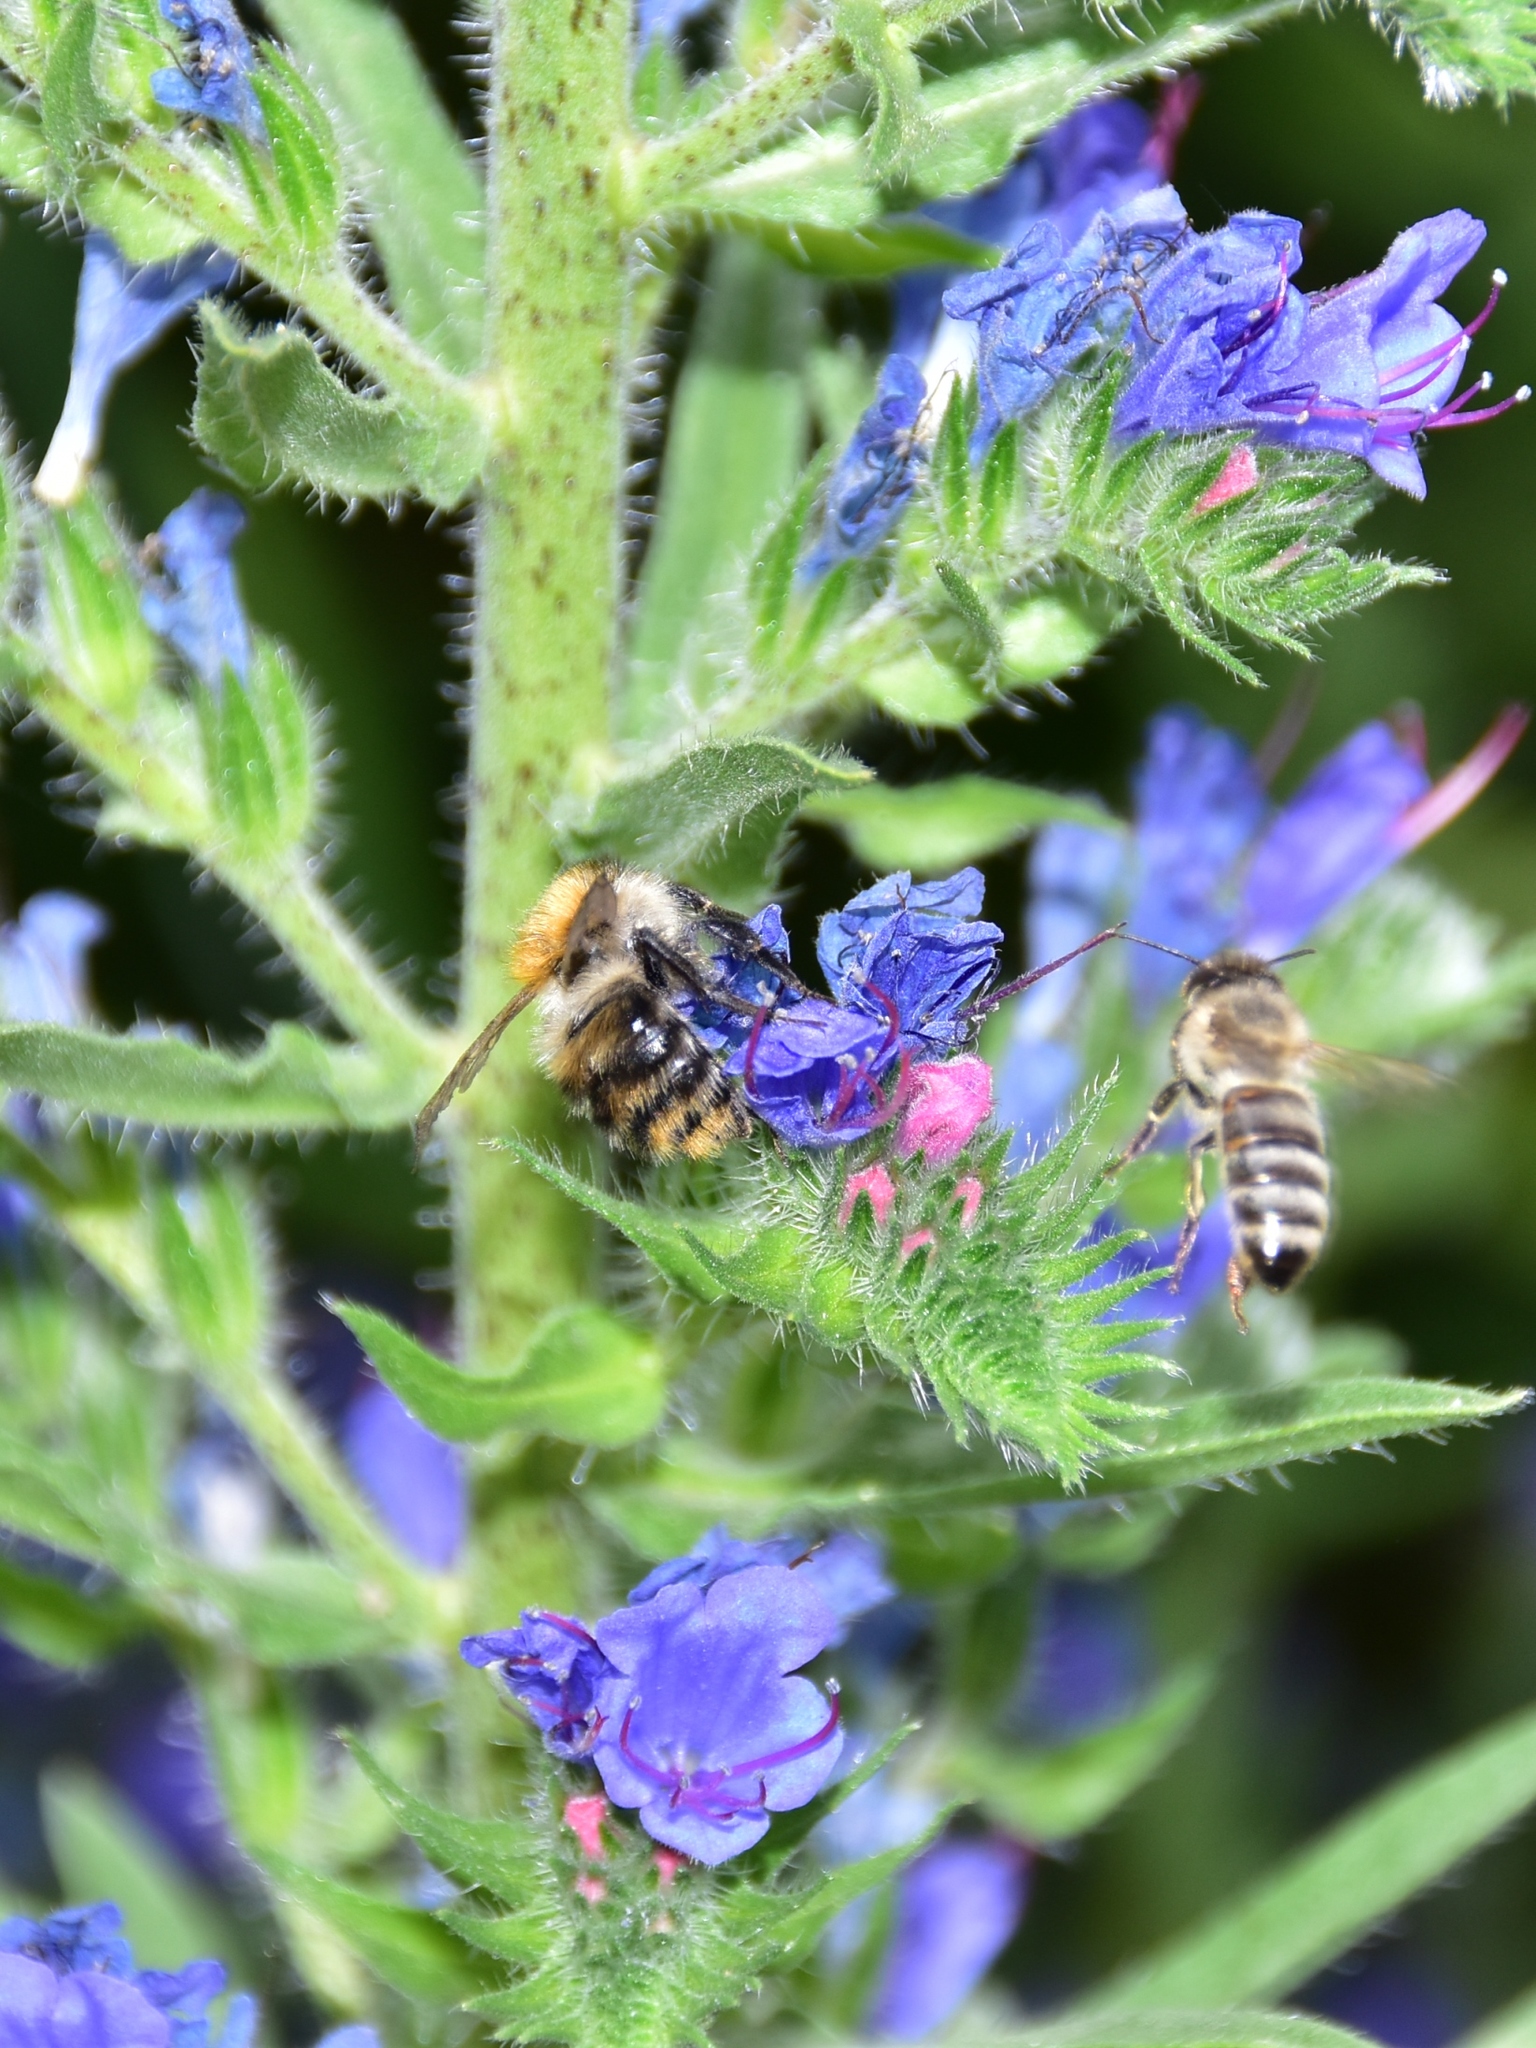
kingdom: Animalia
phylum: Arthropoda
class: Insecta
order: Hymenoptera
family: Apidae
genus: Bombus
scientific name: Bombus pascuorum
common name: Common carder bee
